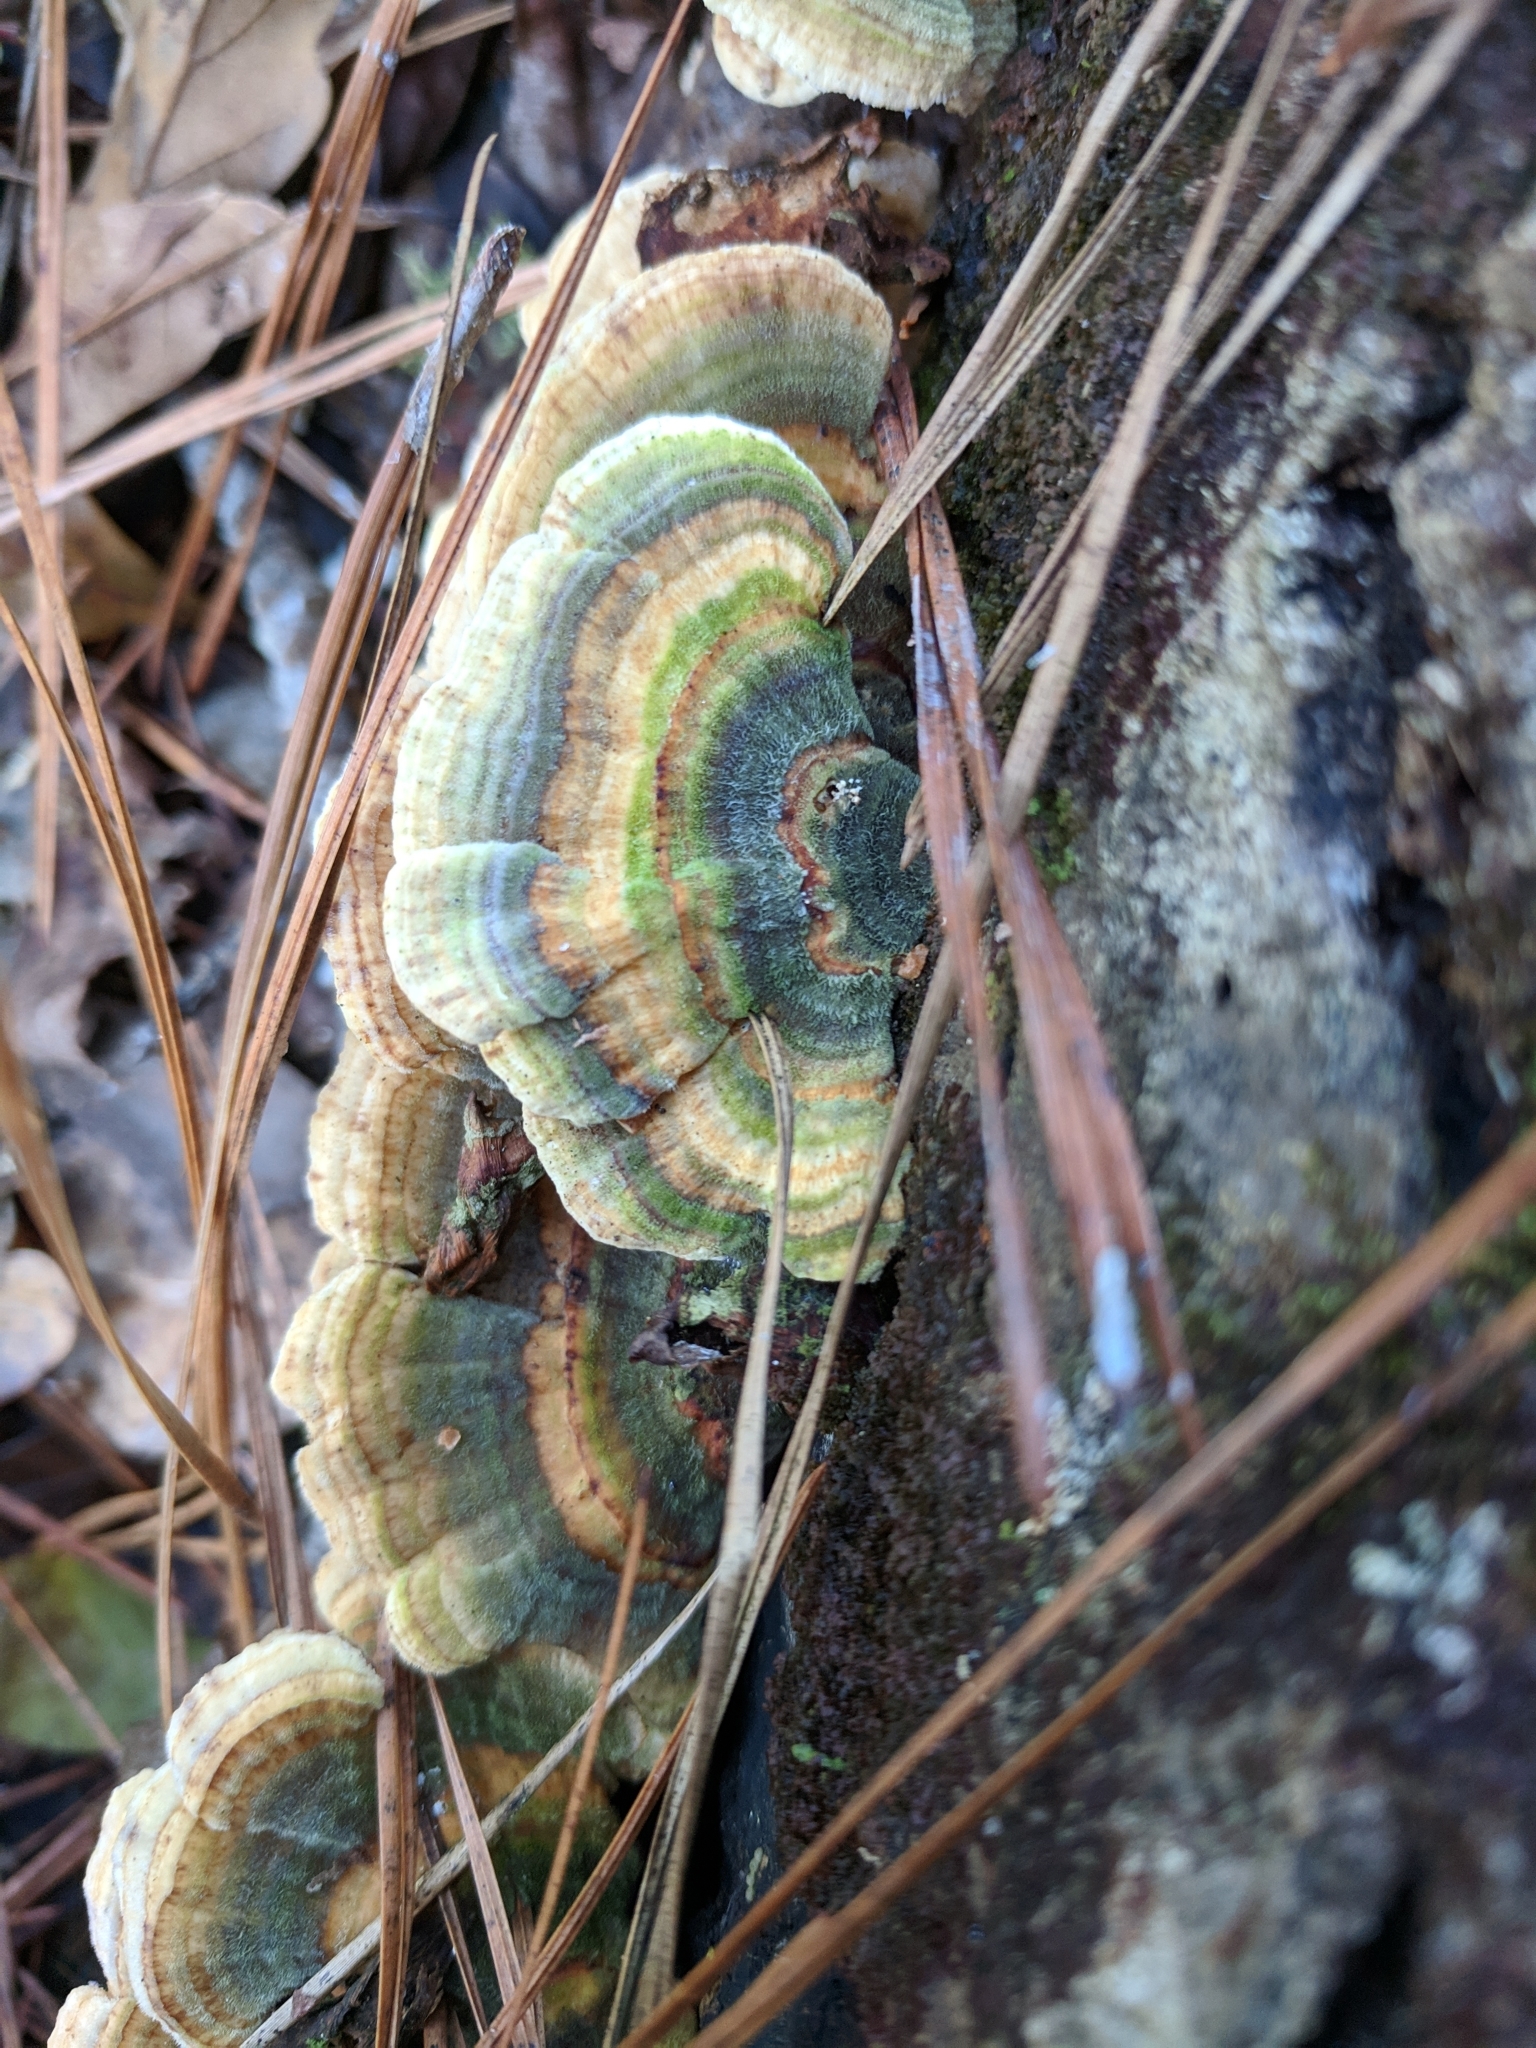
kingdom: Fungi
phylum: Basidiomycota
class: Agaricomycetes
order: Polyporales
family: Polyporaceae
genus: Trametes
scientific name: Trametes versicolor
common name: Turkeytail
